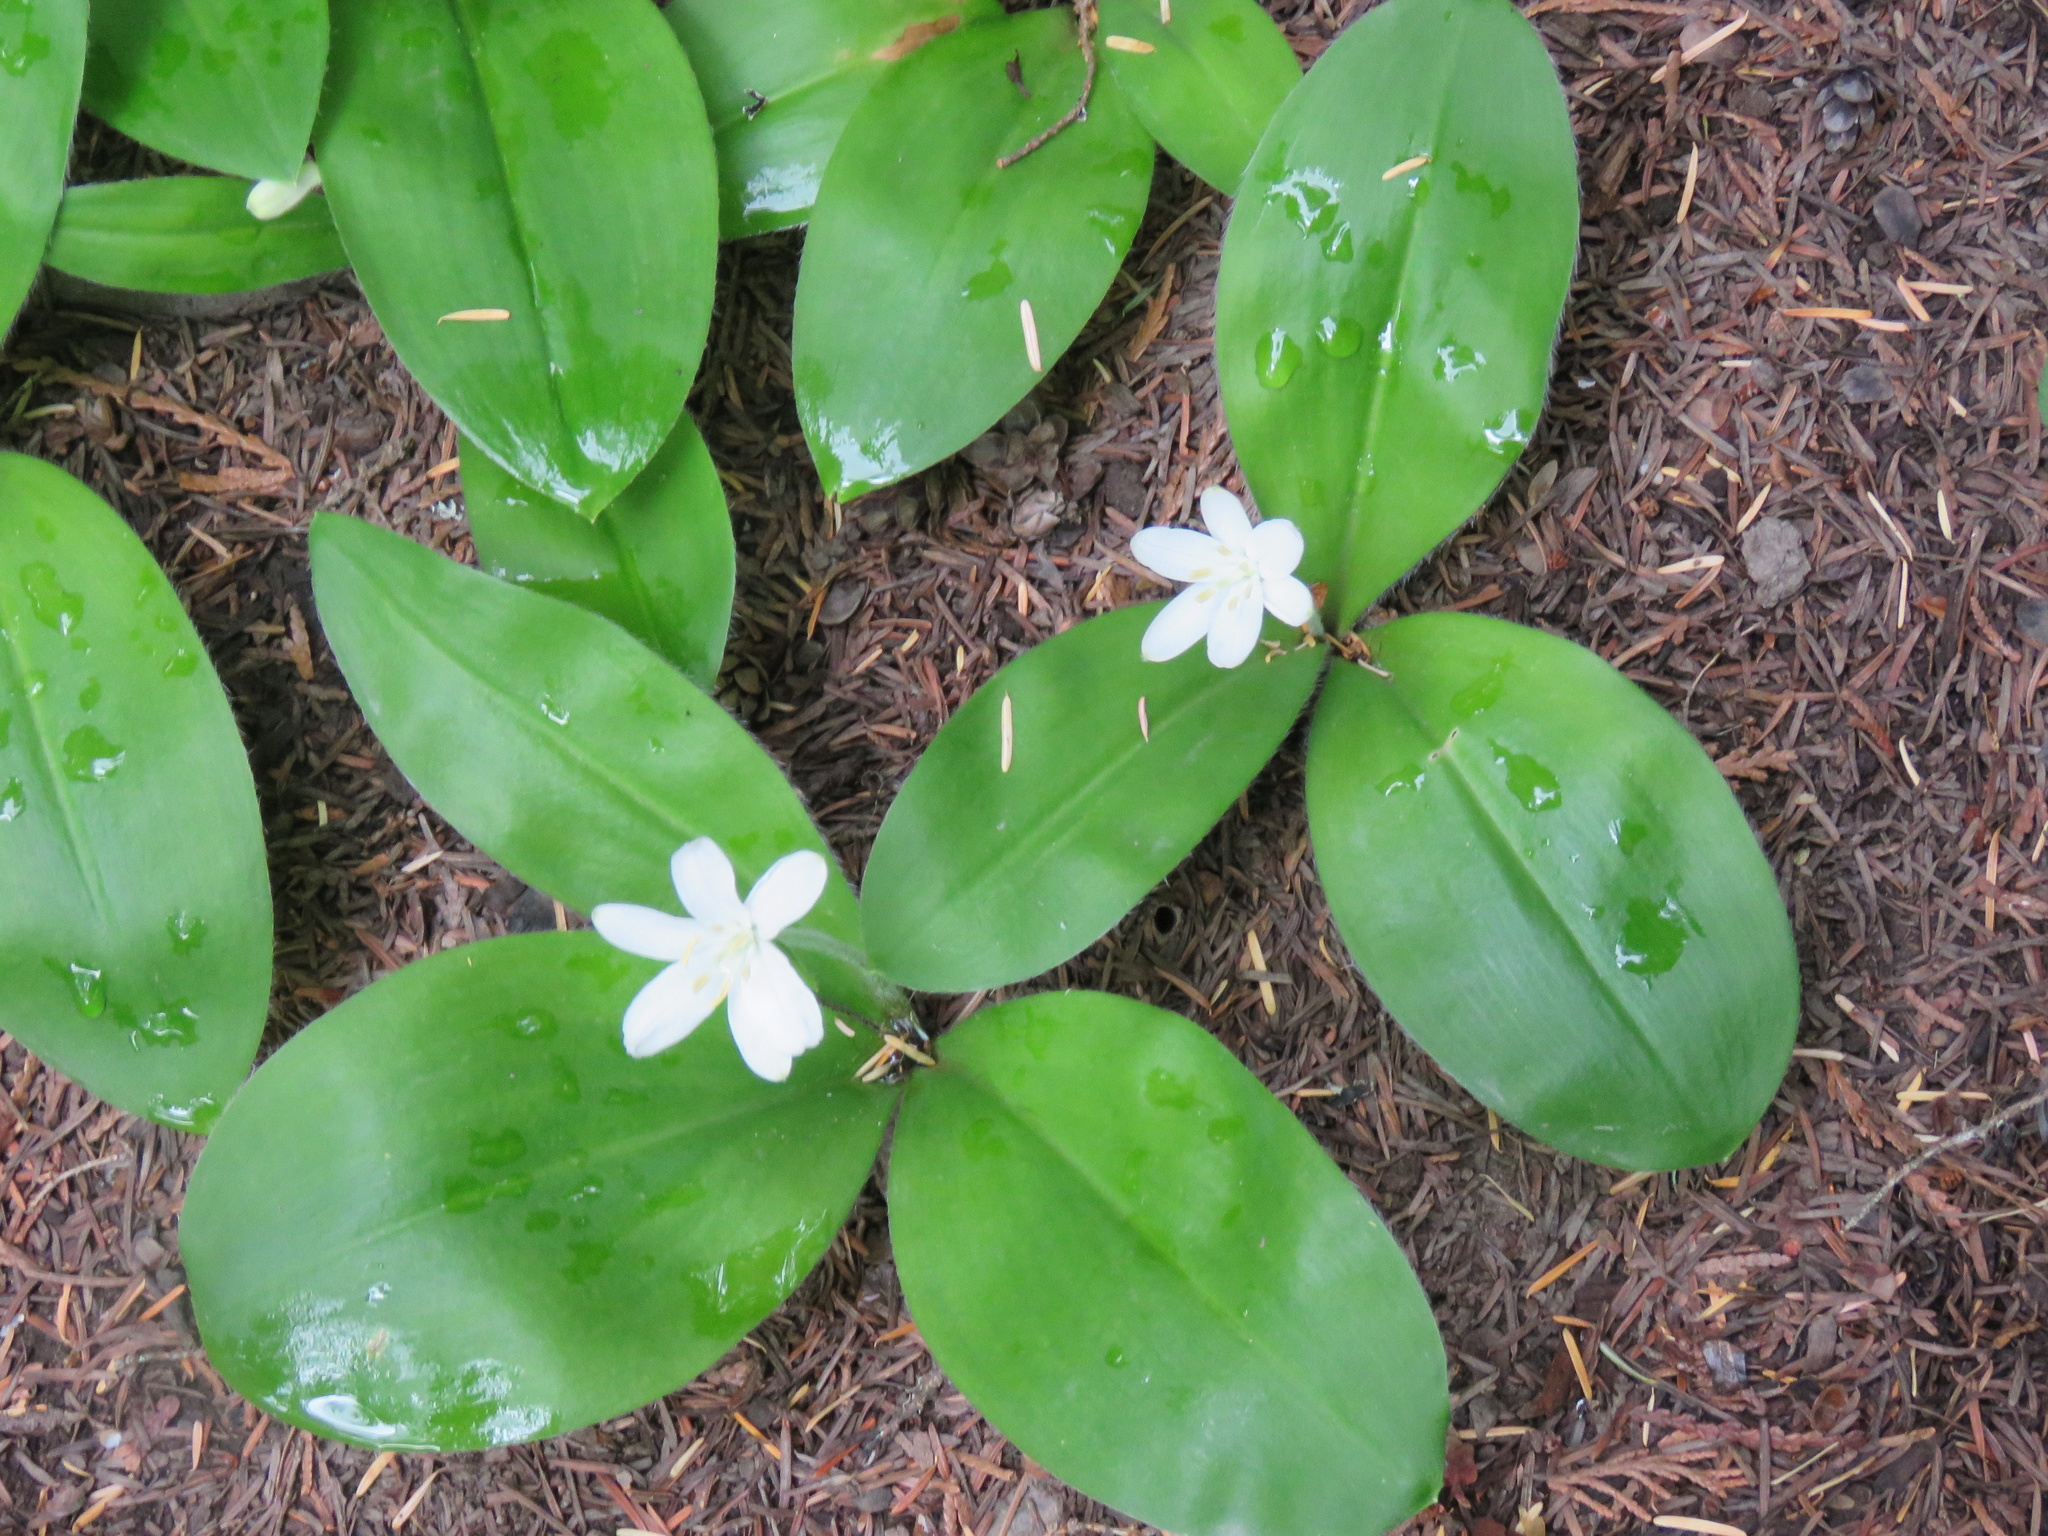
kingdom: Plantae
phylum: Tracheophyta
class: Liliopsida
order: Liliales
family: Liliaceae
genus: Clintonia
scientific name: Clintonia uniflora
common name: Queen's cup
